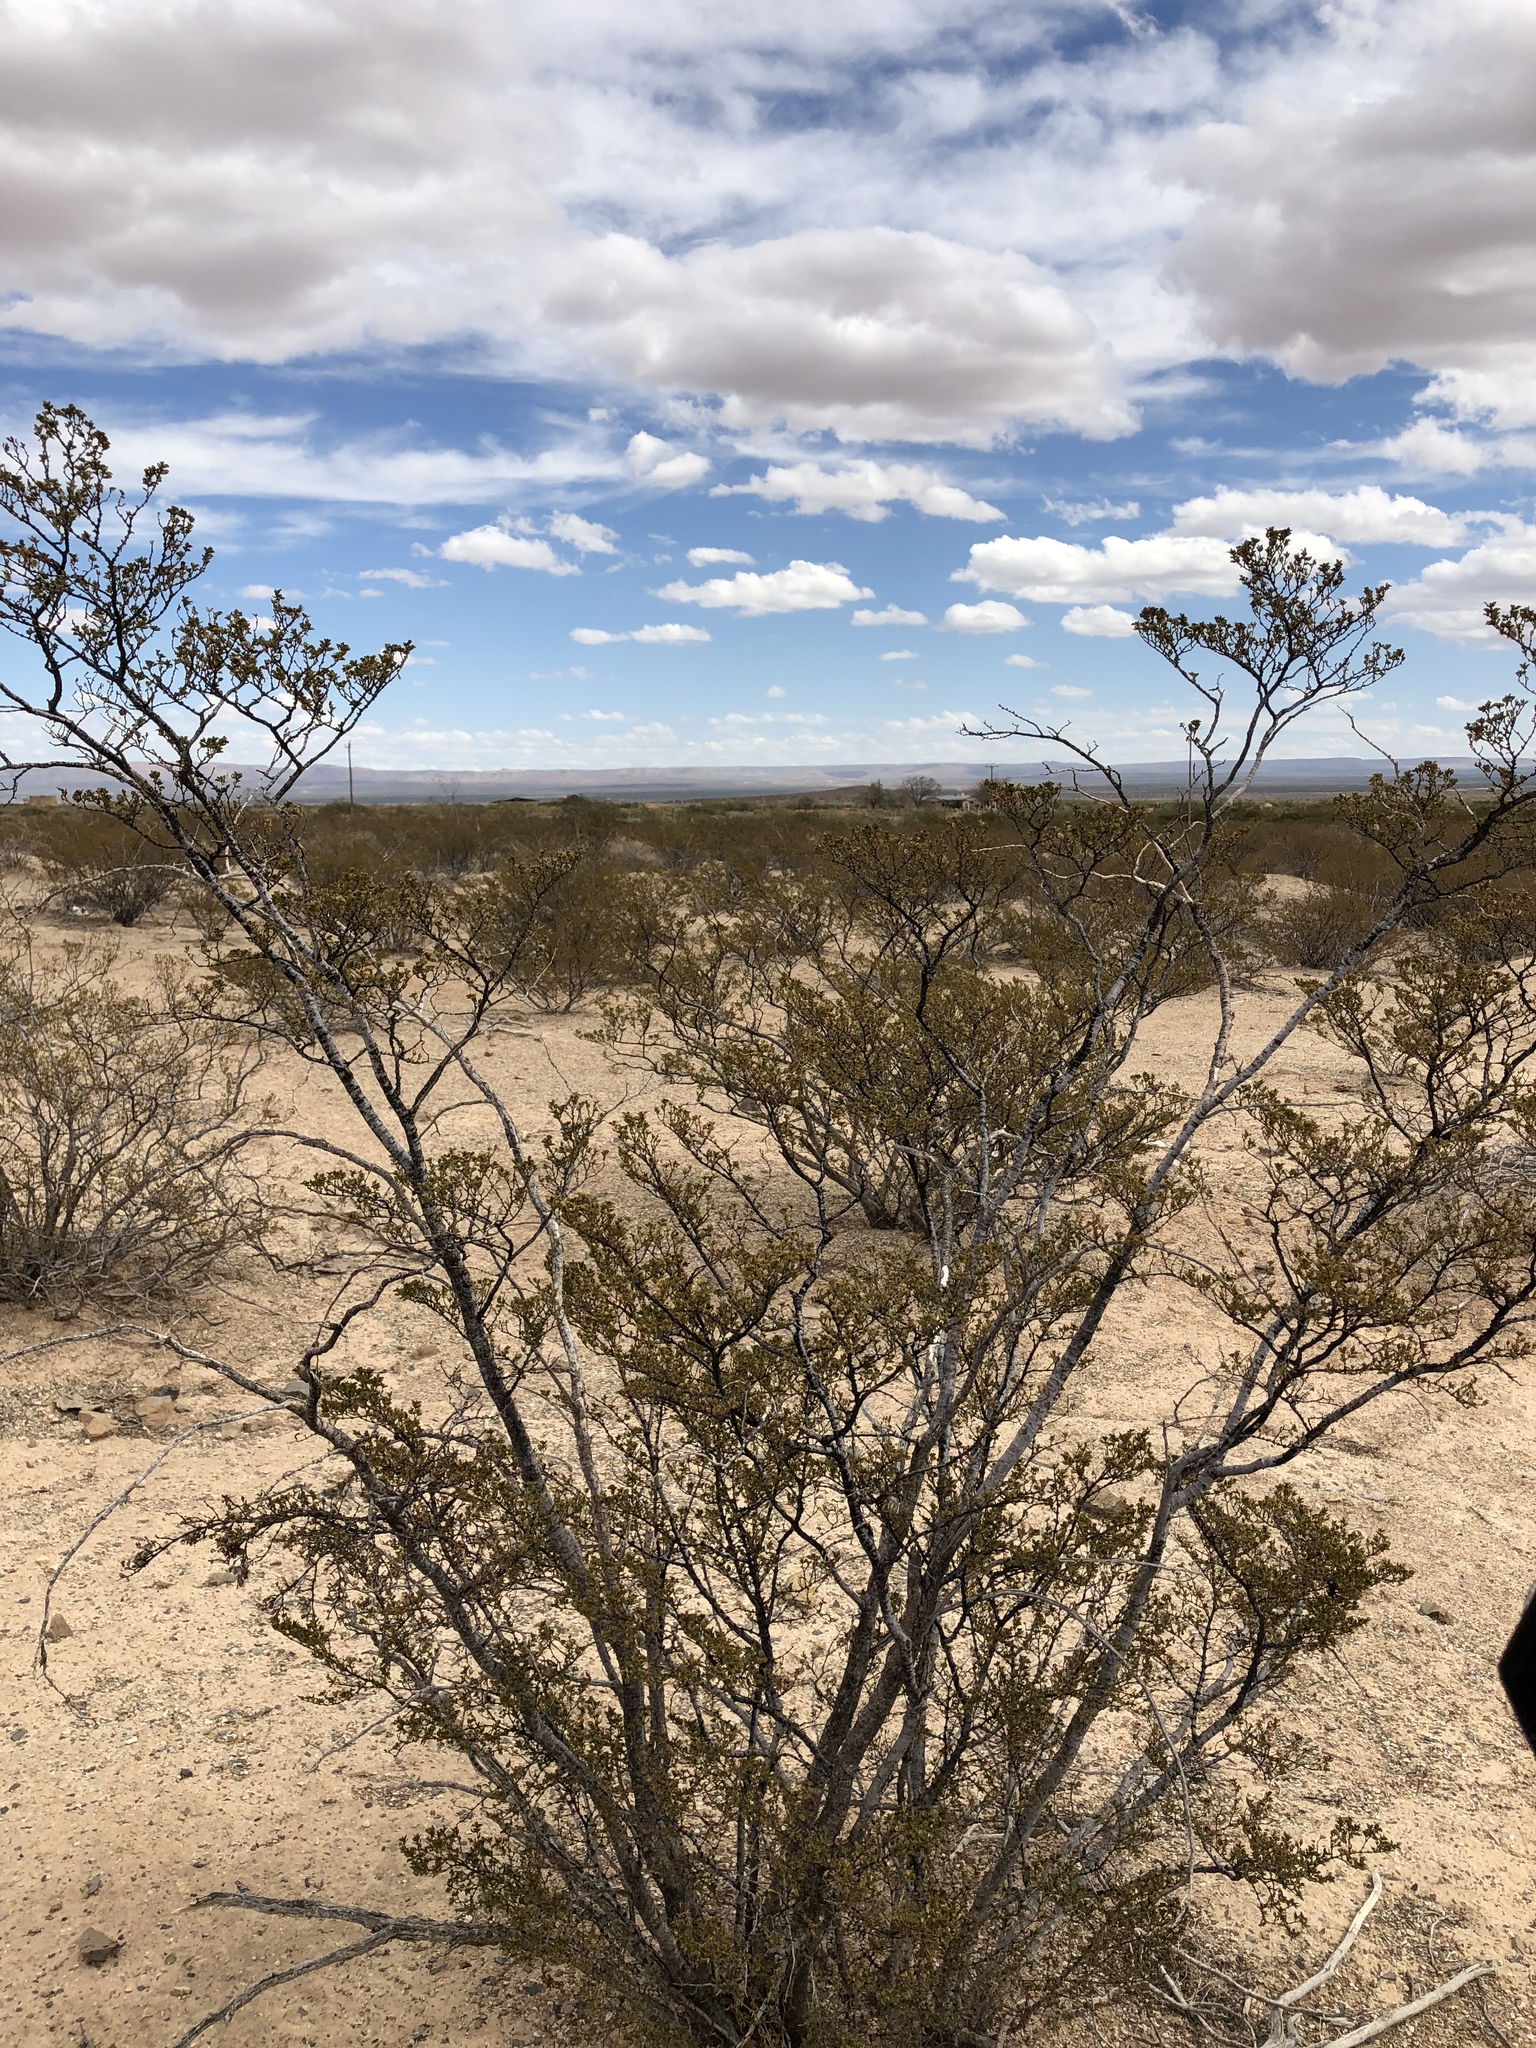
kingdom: Plantae
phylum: Tracheophyta
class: Magnoliopsida
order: Zygophyllales
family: Zygophyllaceae
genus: Larrea
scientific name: Larrea tridentata
